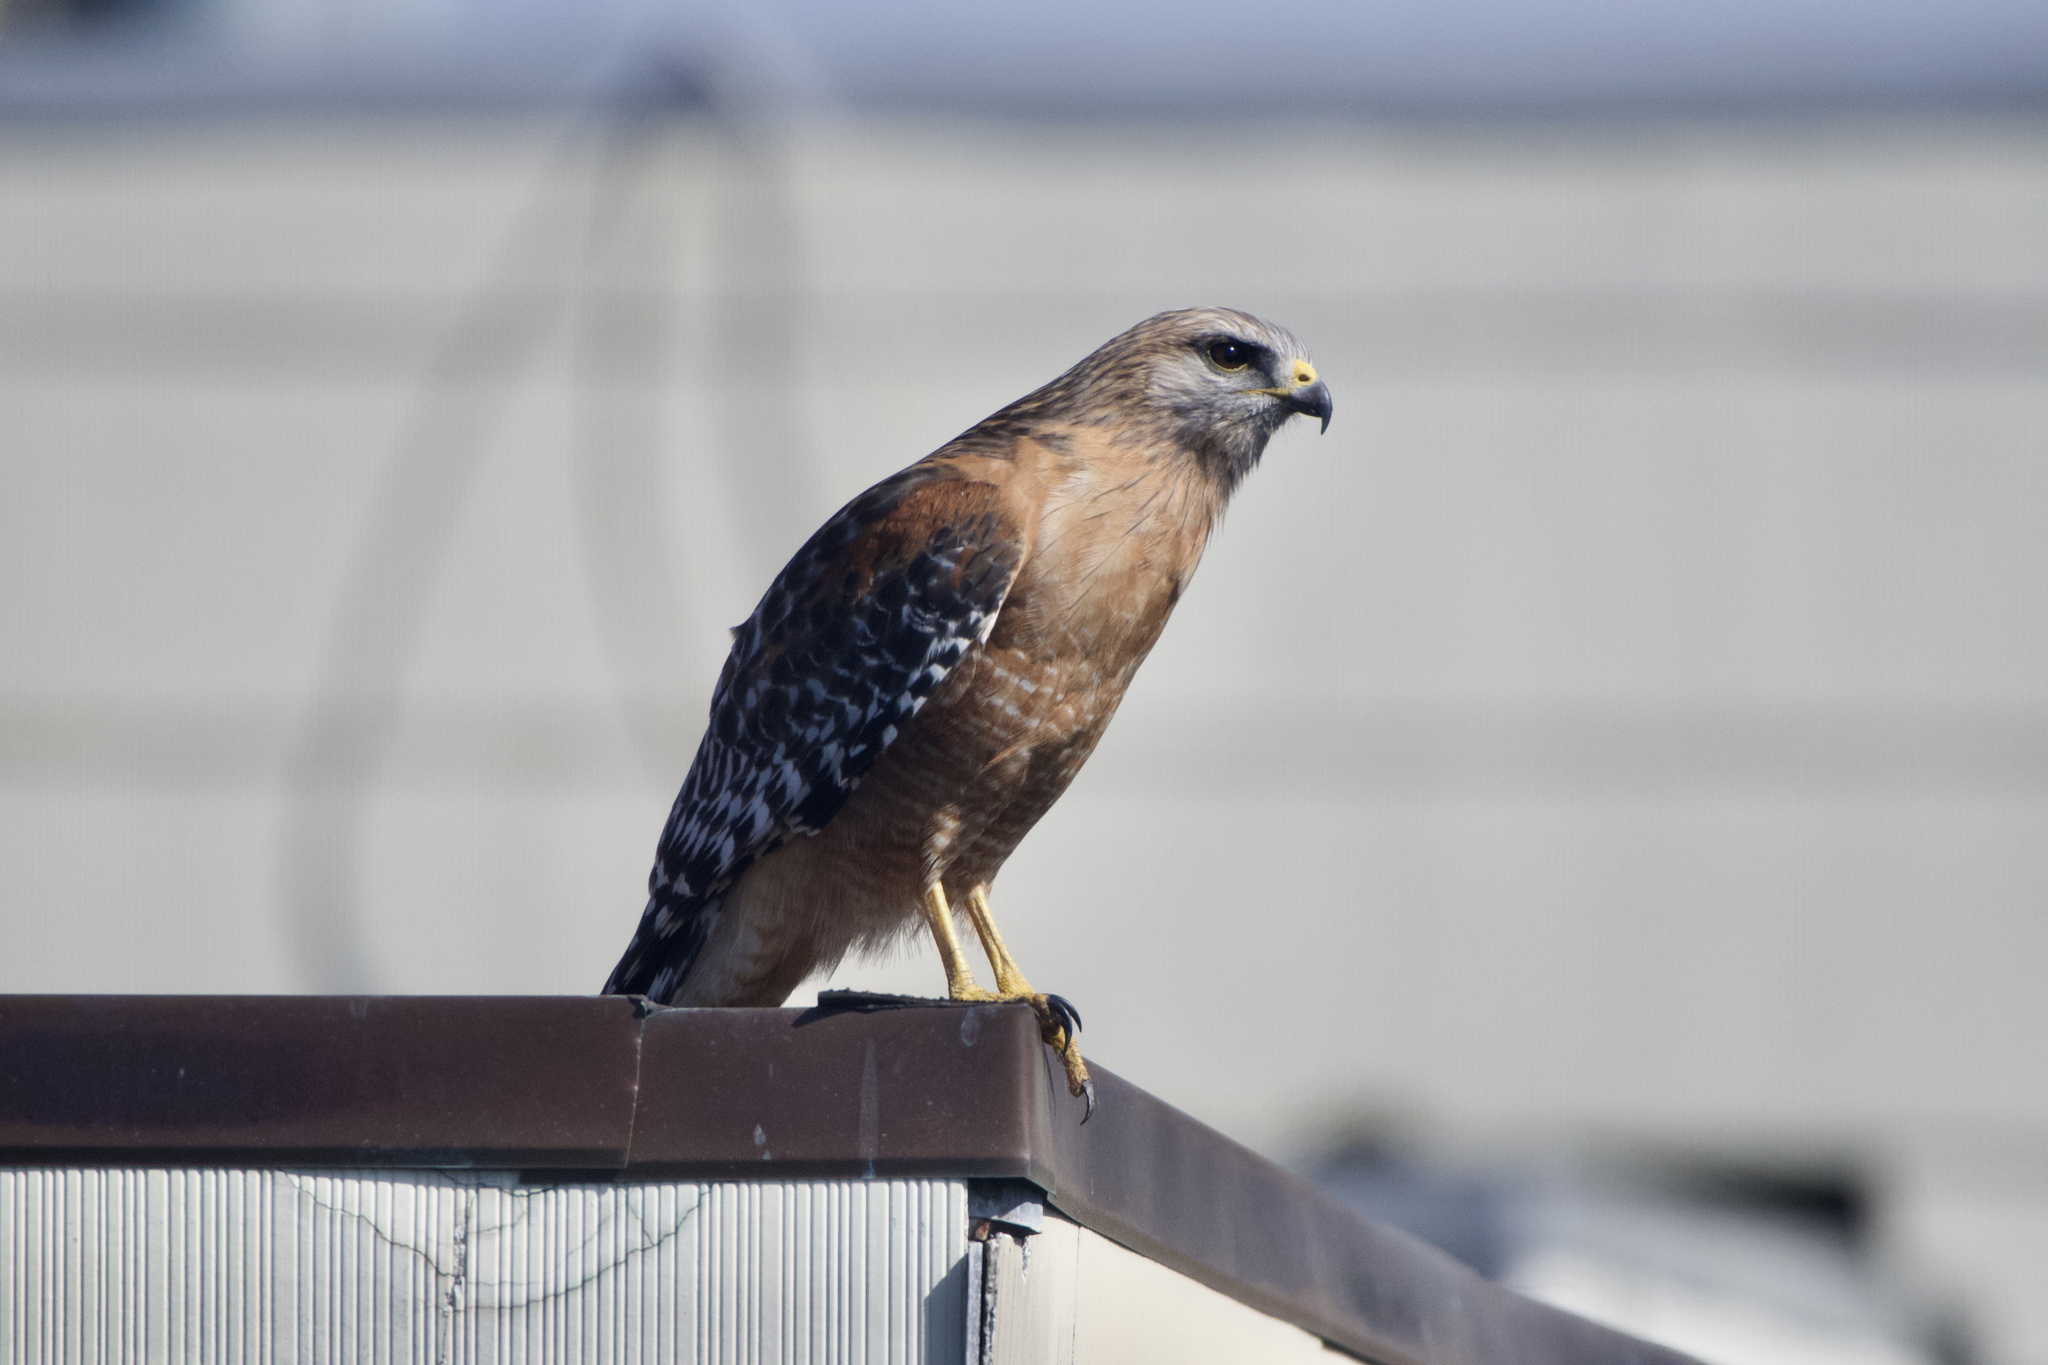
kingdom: Animalia
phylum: Chordata
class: Aves
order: Accipitriformes
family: Accipitridae
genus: Buteo
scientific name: Buteo lineatus
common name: Red-shouldered hawk
